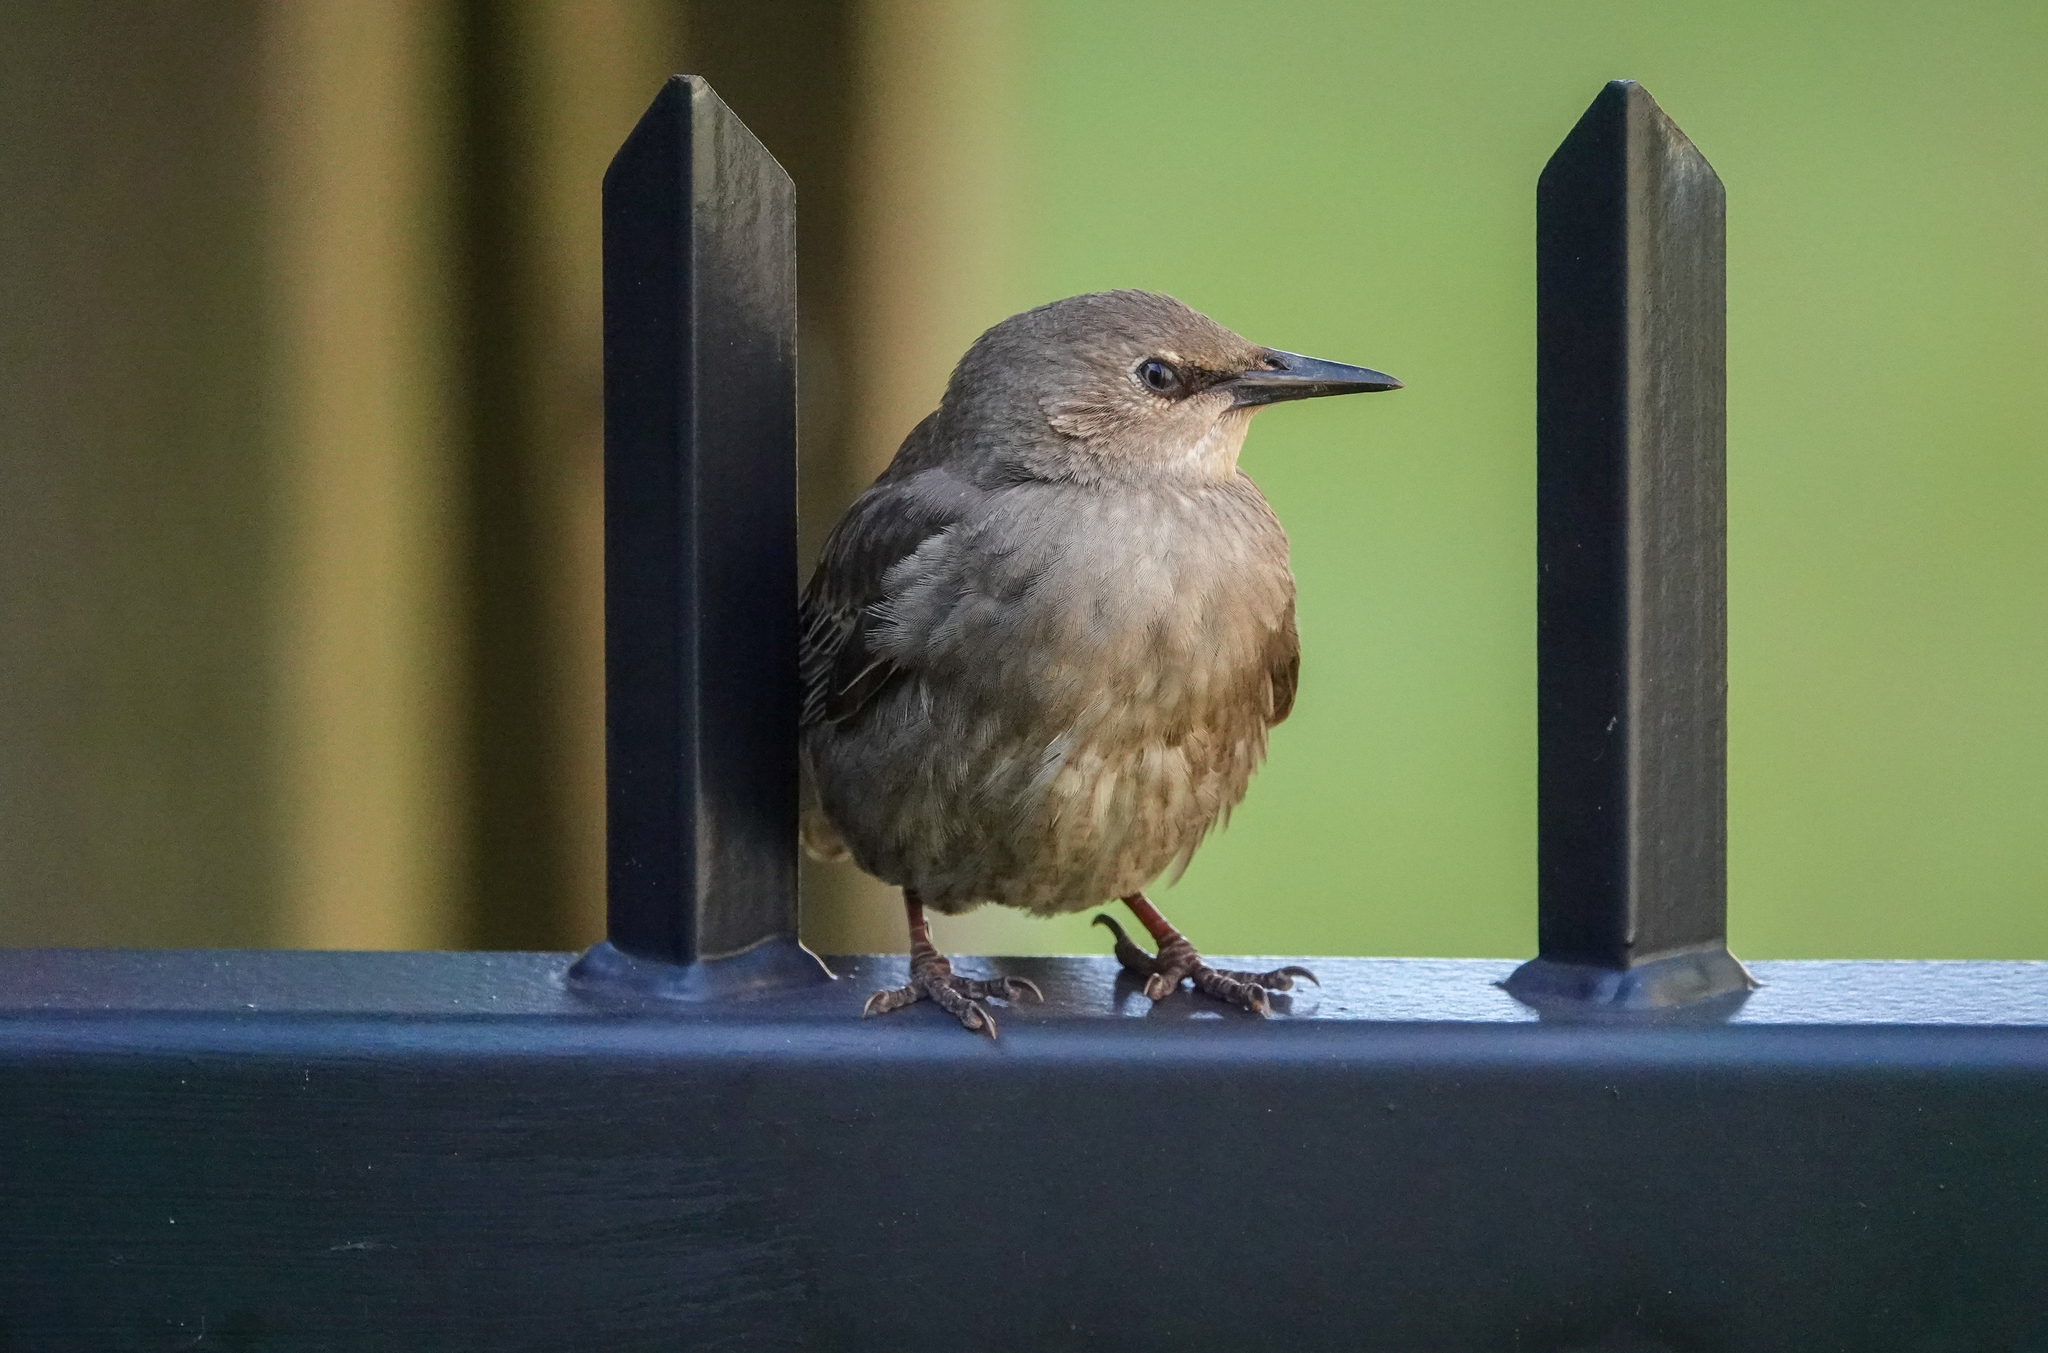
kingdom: Animalia
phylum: Chordata
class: Aves
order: Passeriformes
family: Sturnidae
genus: Sturnus
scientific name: Sturnus vulgaris
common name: Common starling
